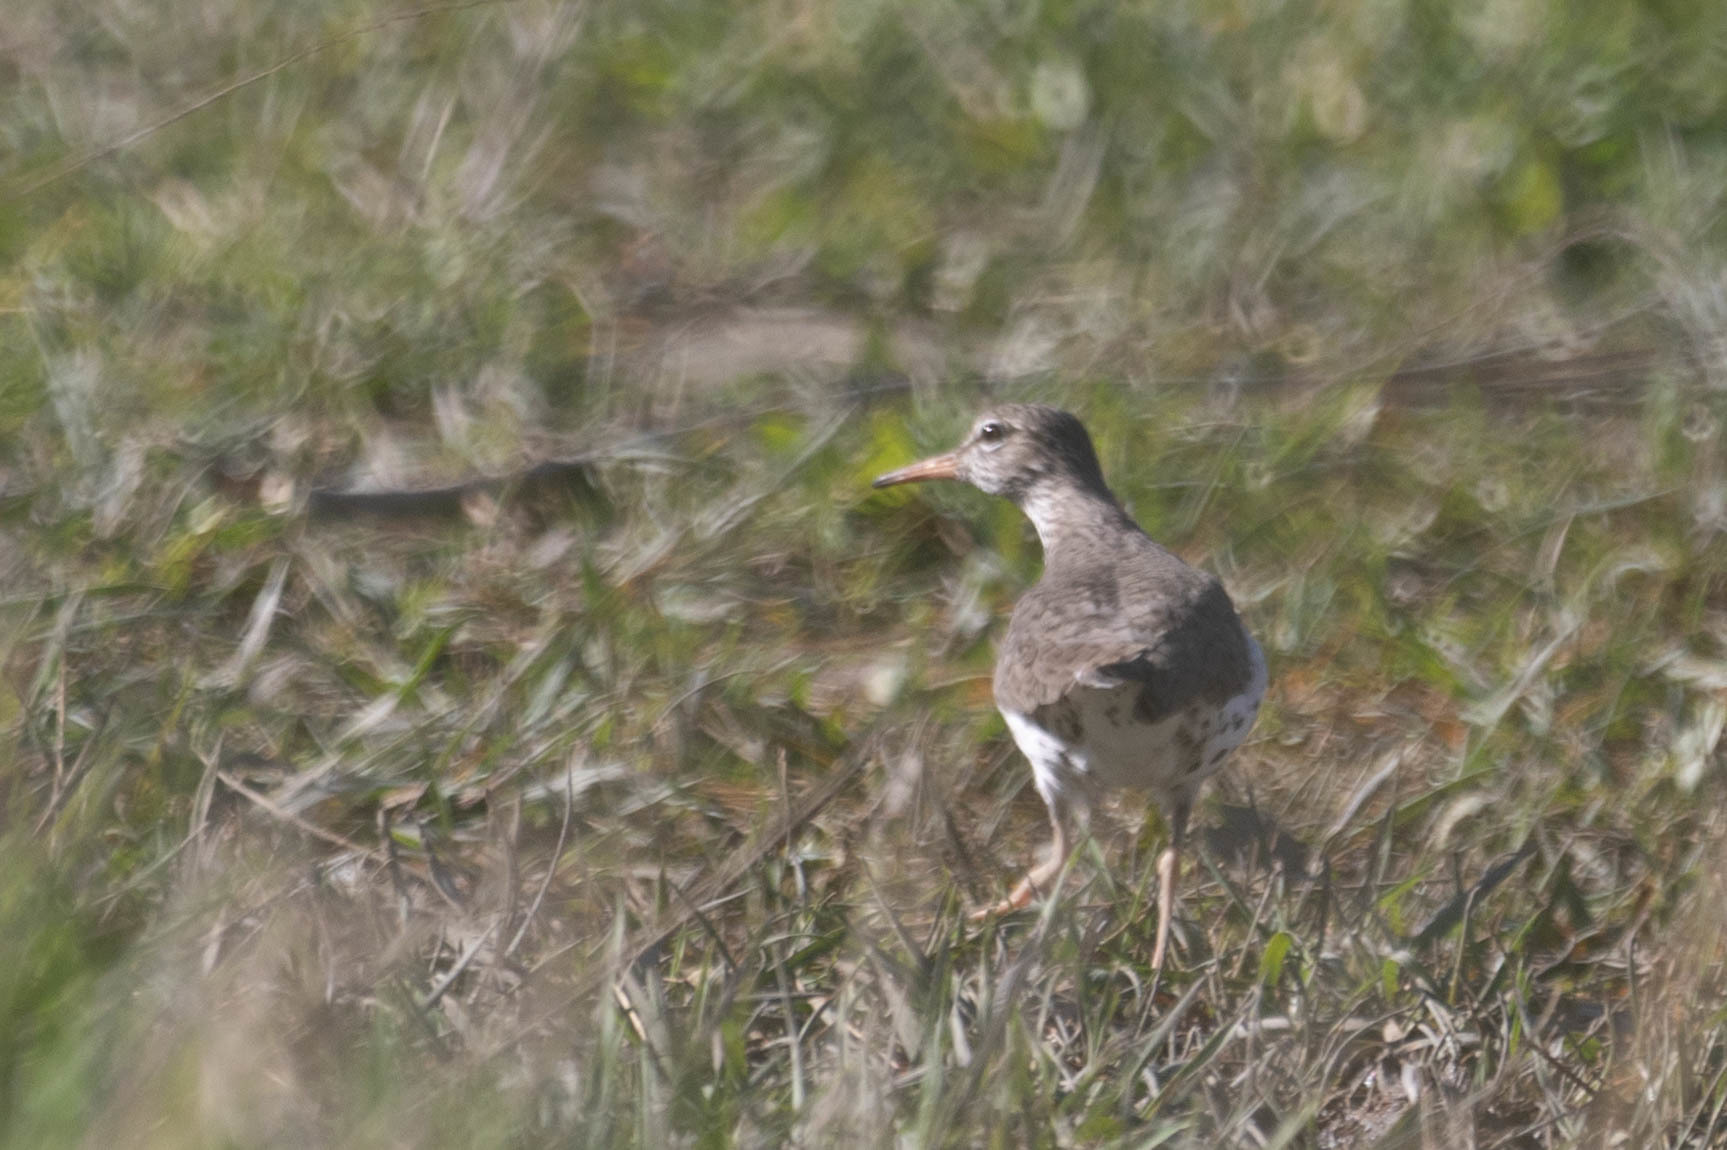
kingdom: Animalia
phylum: Chordata
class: Aves
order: Charadriiformes
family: Scolopacidae
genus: Actitis
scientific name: Actitis macularius
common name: Spotted sandpiper
